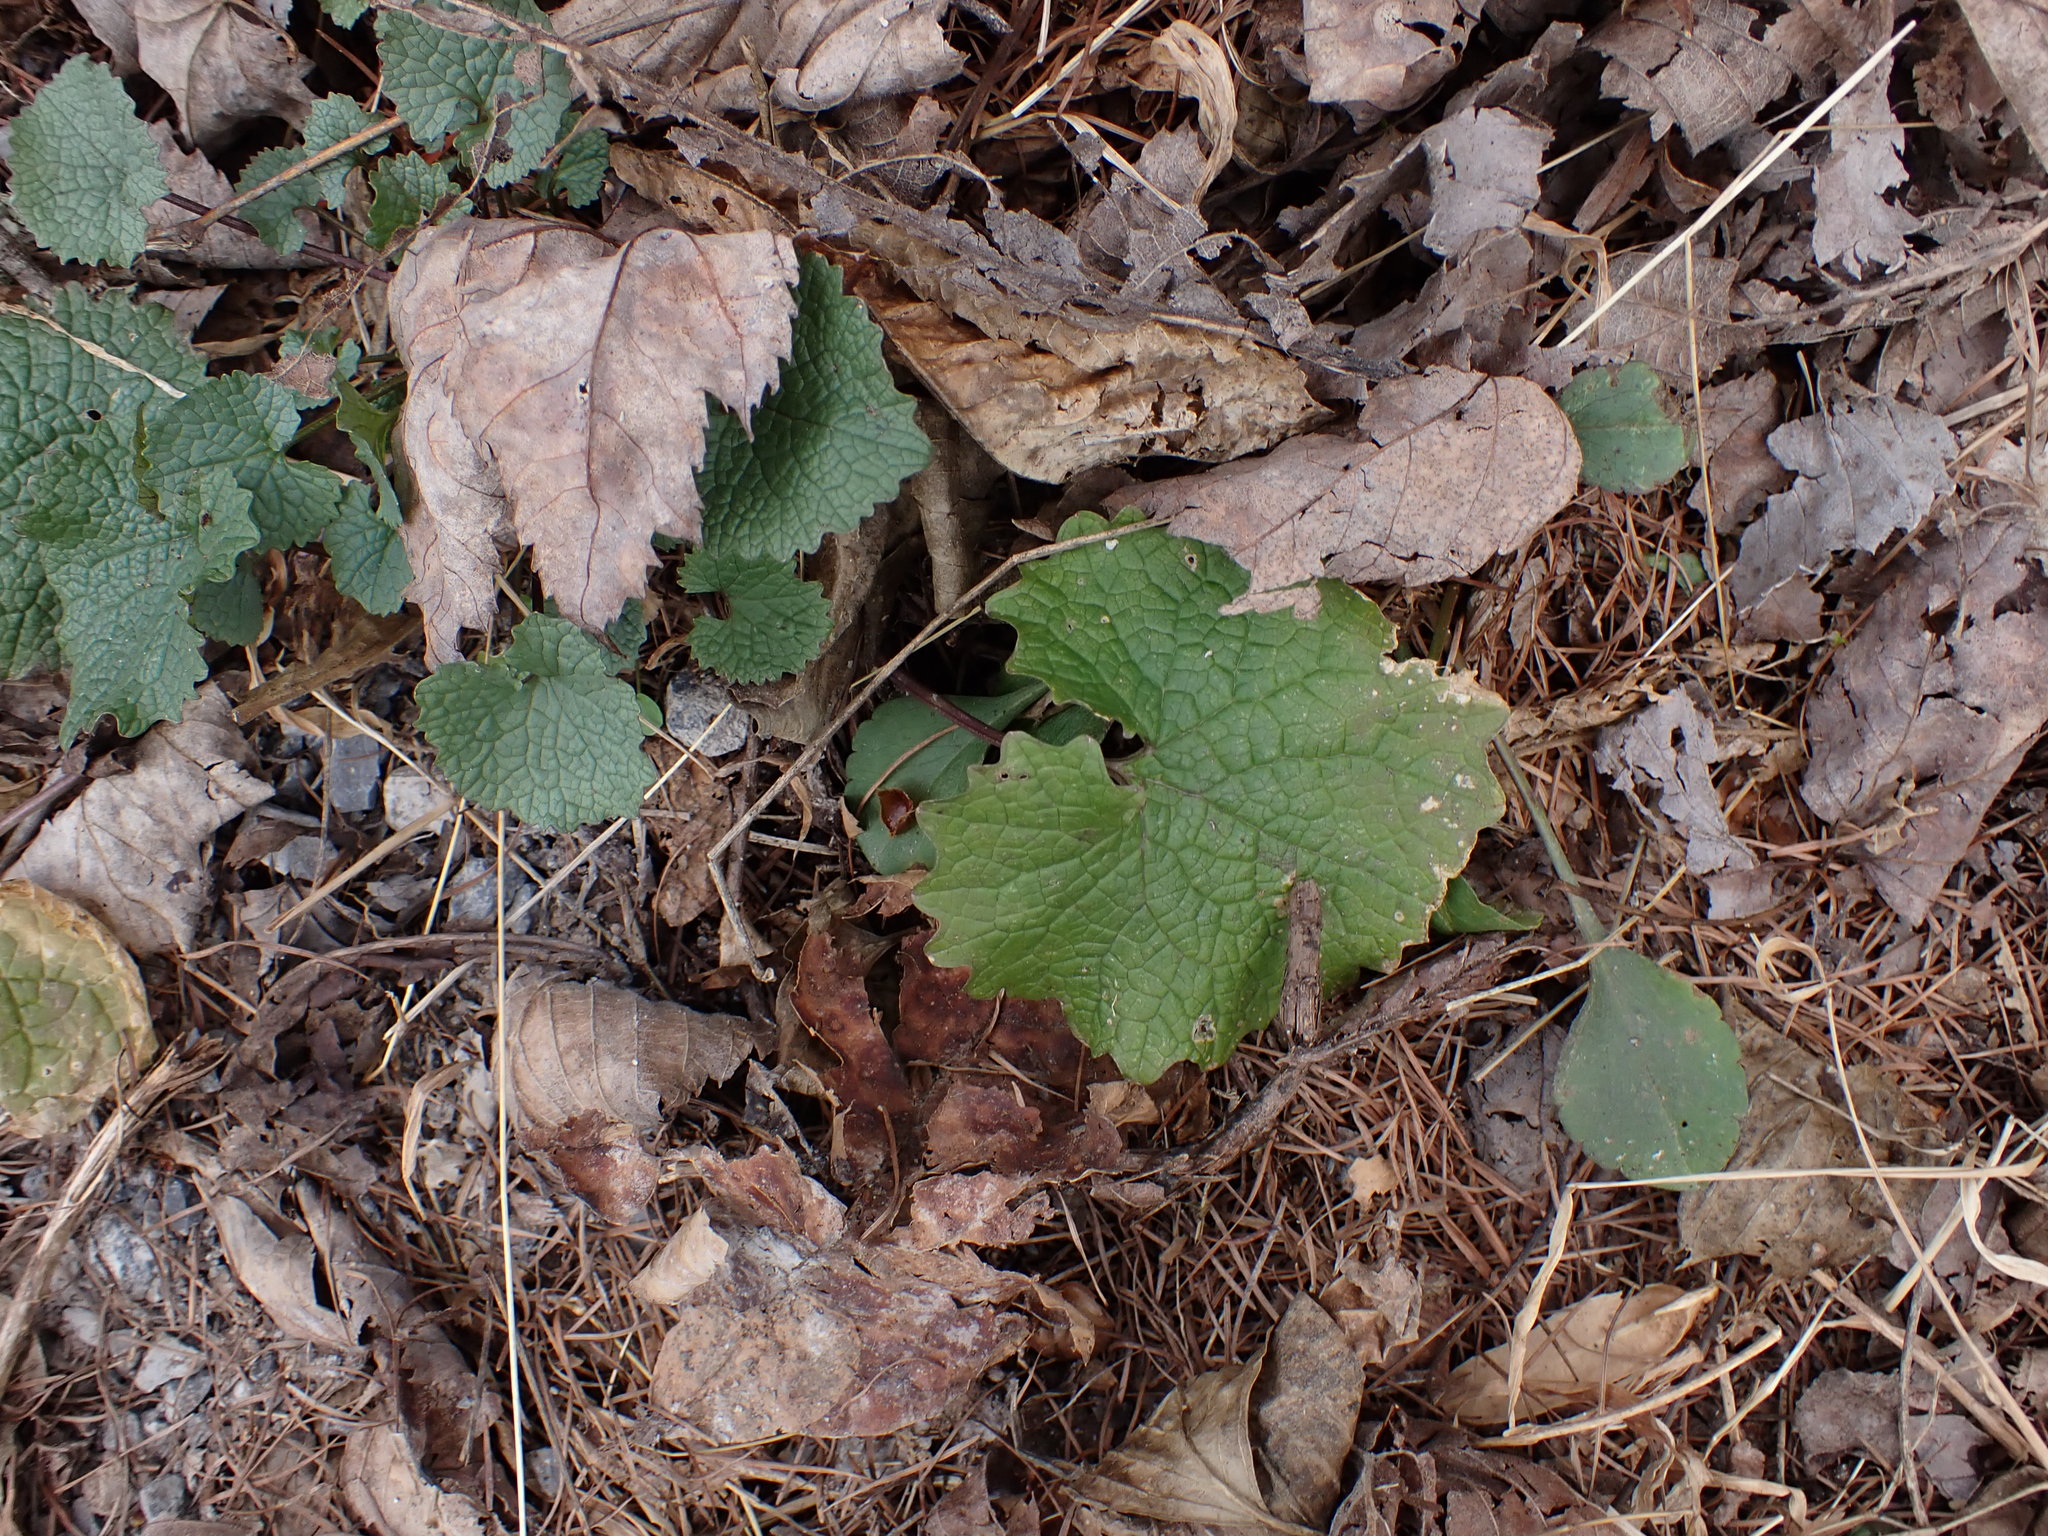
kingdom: Plantae
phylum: Tracheophyta
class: Magnoliopsida
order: Brassicales
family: Brassicaceae
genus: Alliaria
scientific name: Alliaria petiolata
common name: Garlic mustard
